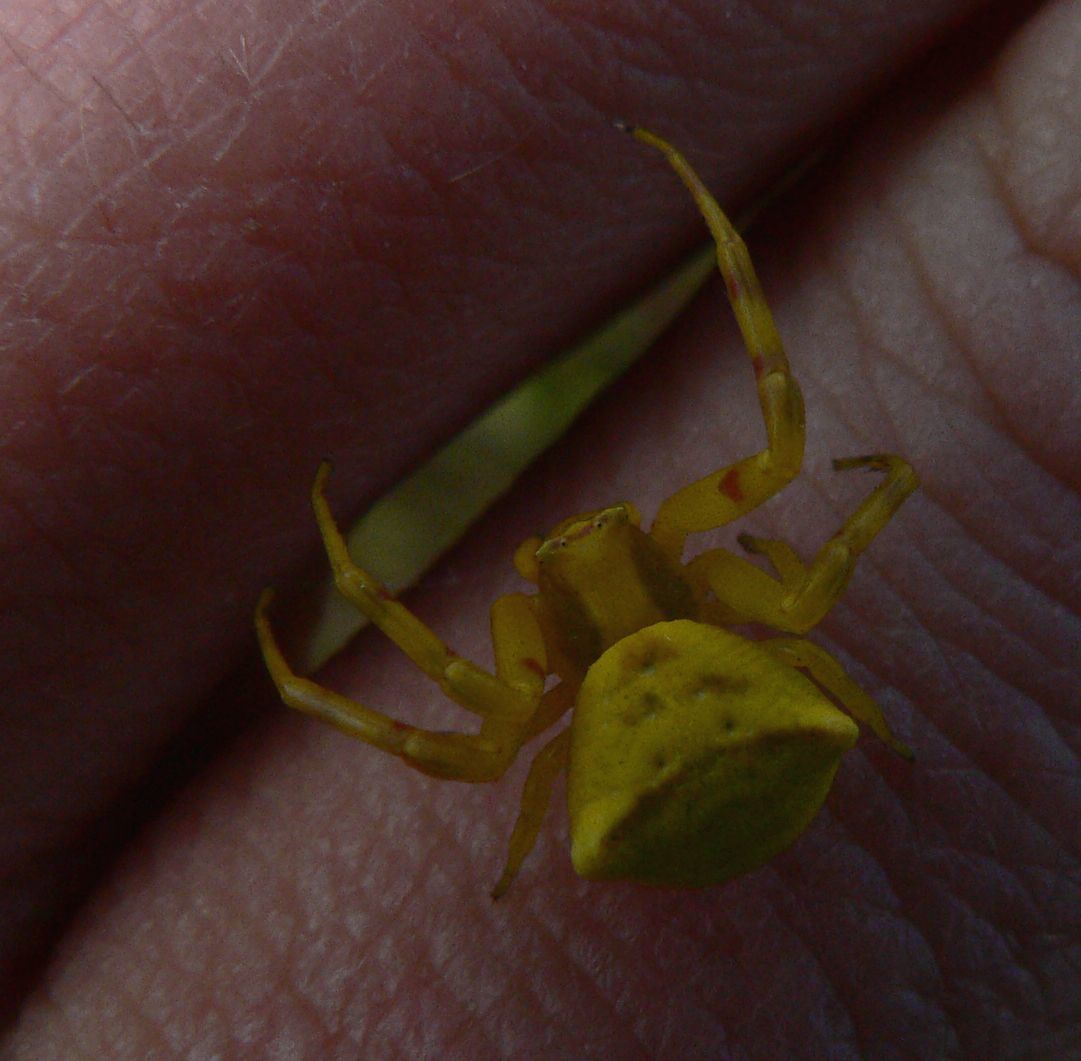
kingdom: Animalia
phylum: Arthropoda
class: Arachnida
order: Araneae
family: Thomisidae
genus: Thomisus
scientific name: Thomisus onustus
